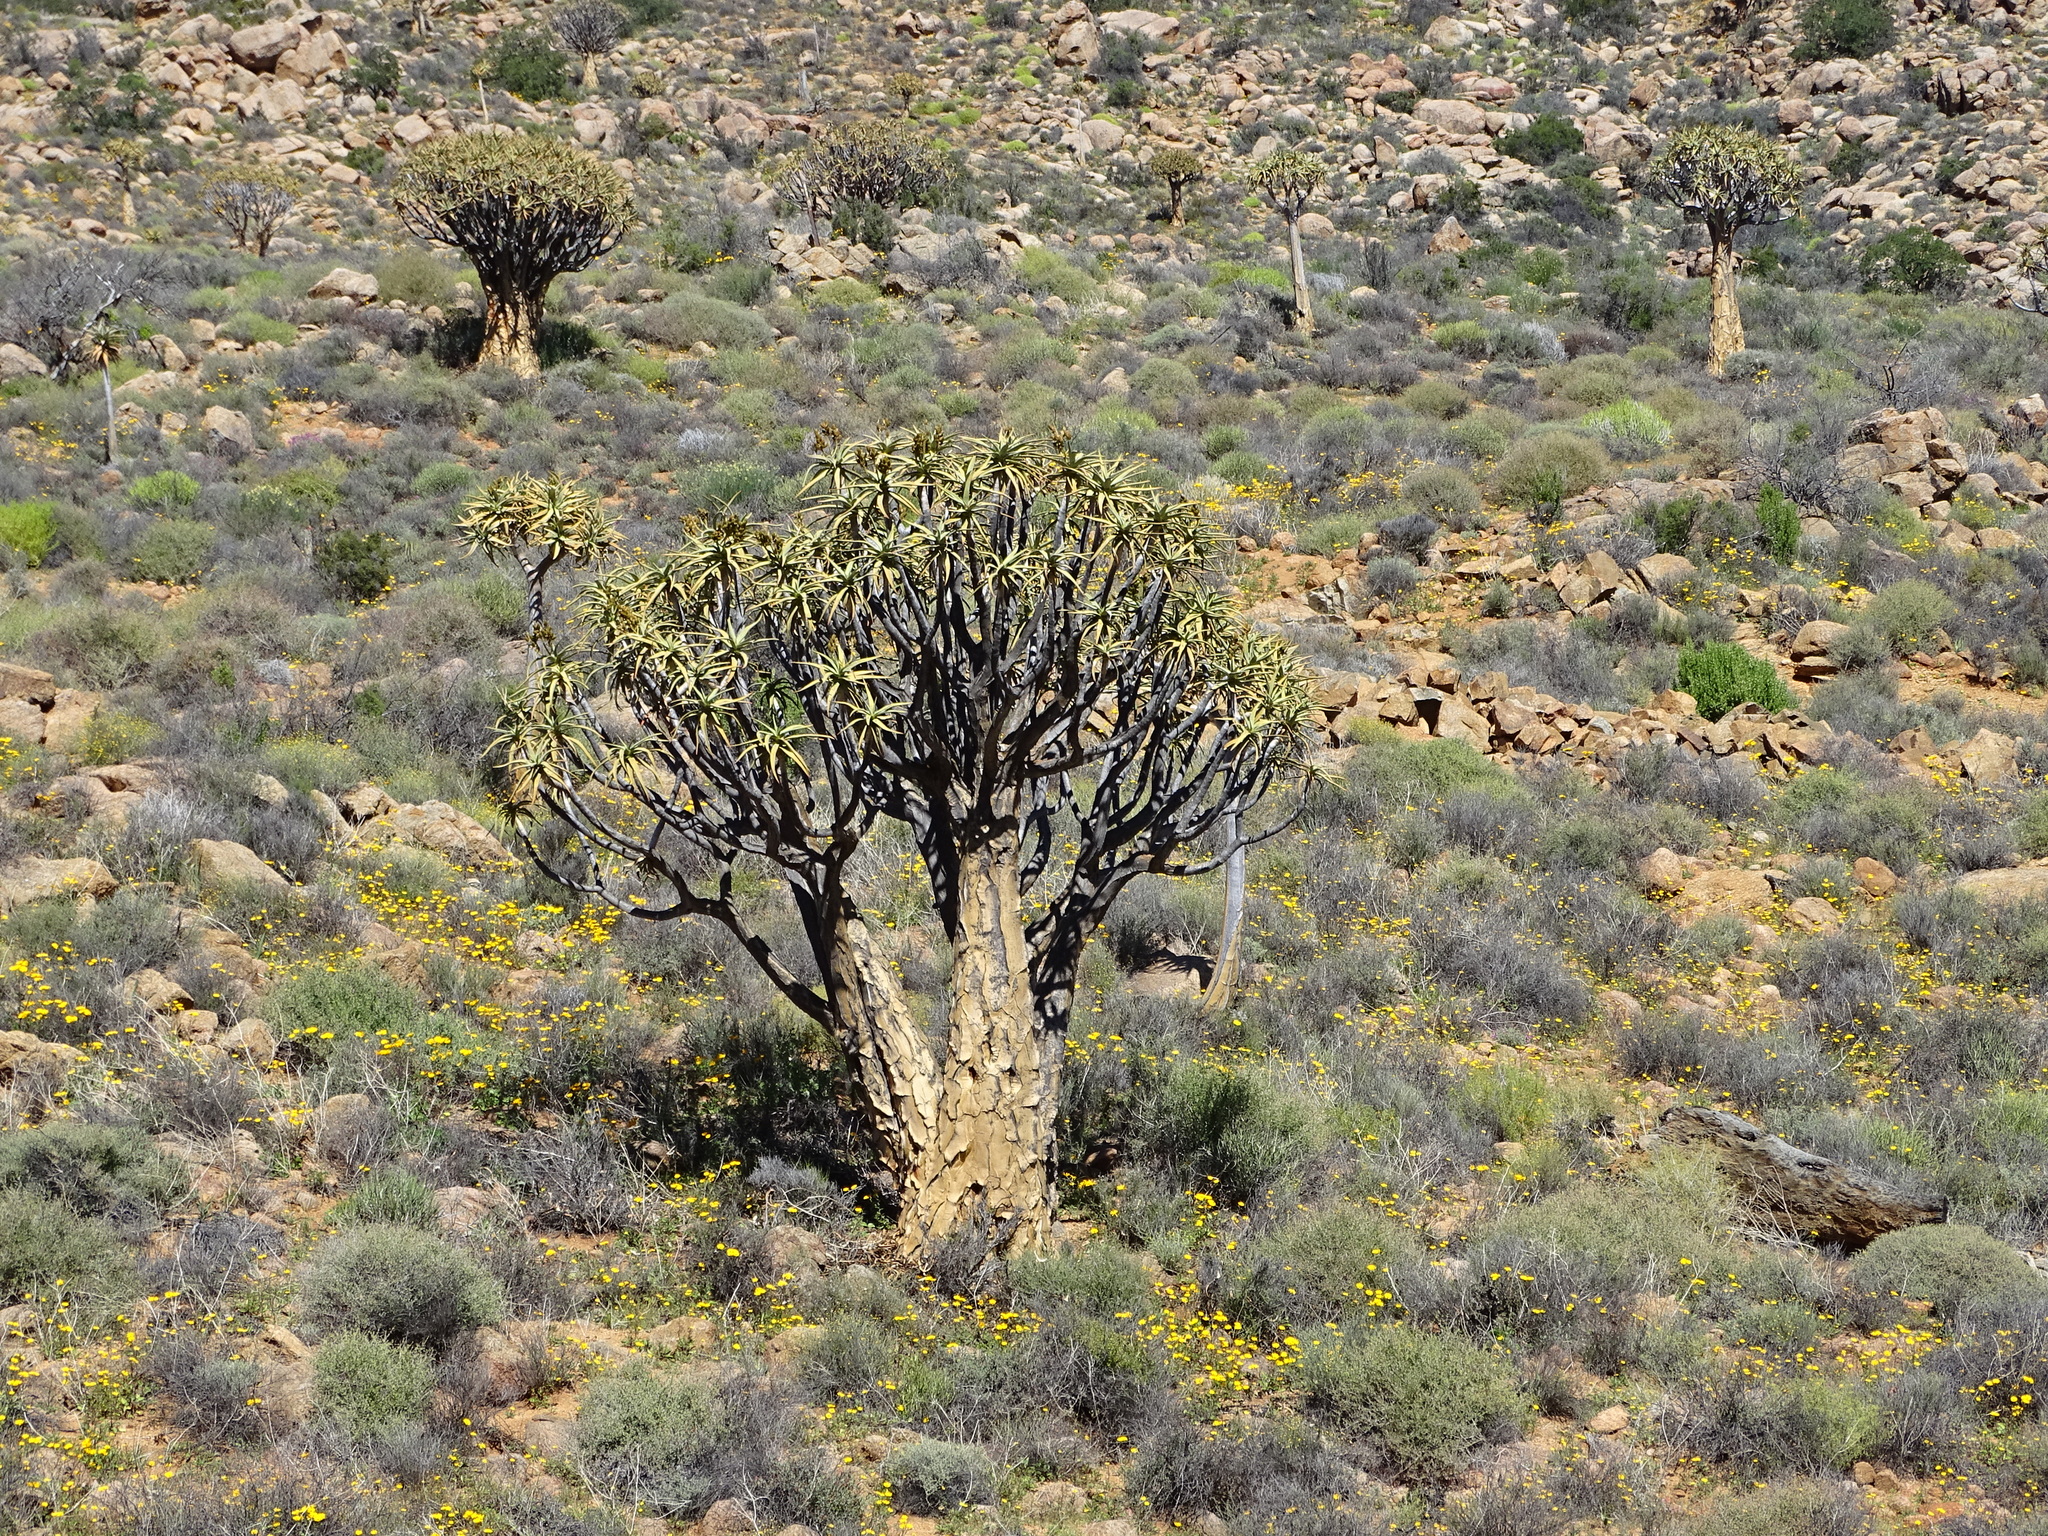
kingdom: Plantae
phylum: Tracheophyta
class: Liliopsida
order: Asparagales
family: Asphodelaceae
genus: Aloidendron
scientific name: Aloidendron dichotomum
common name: Quiver tree
